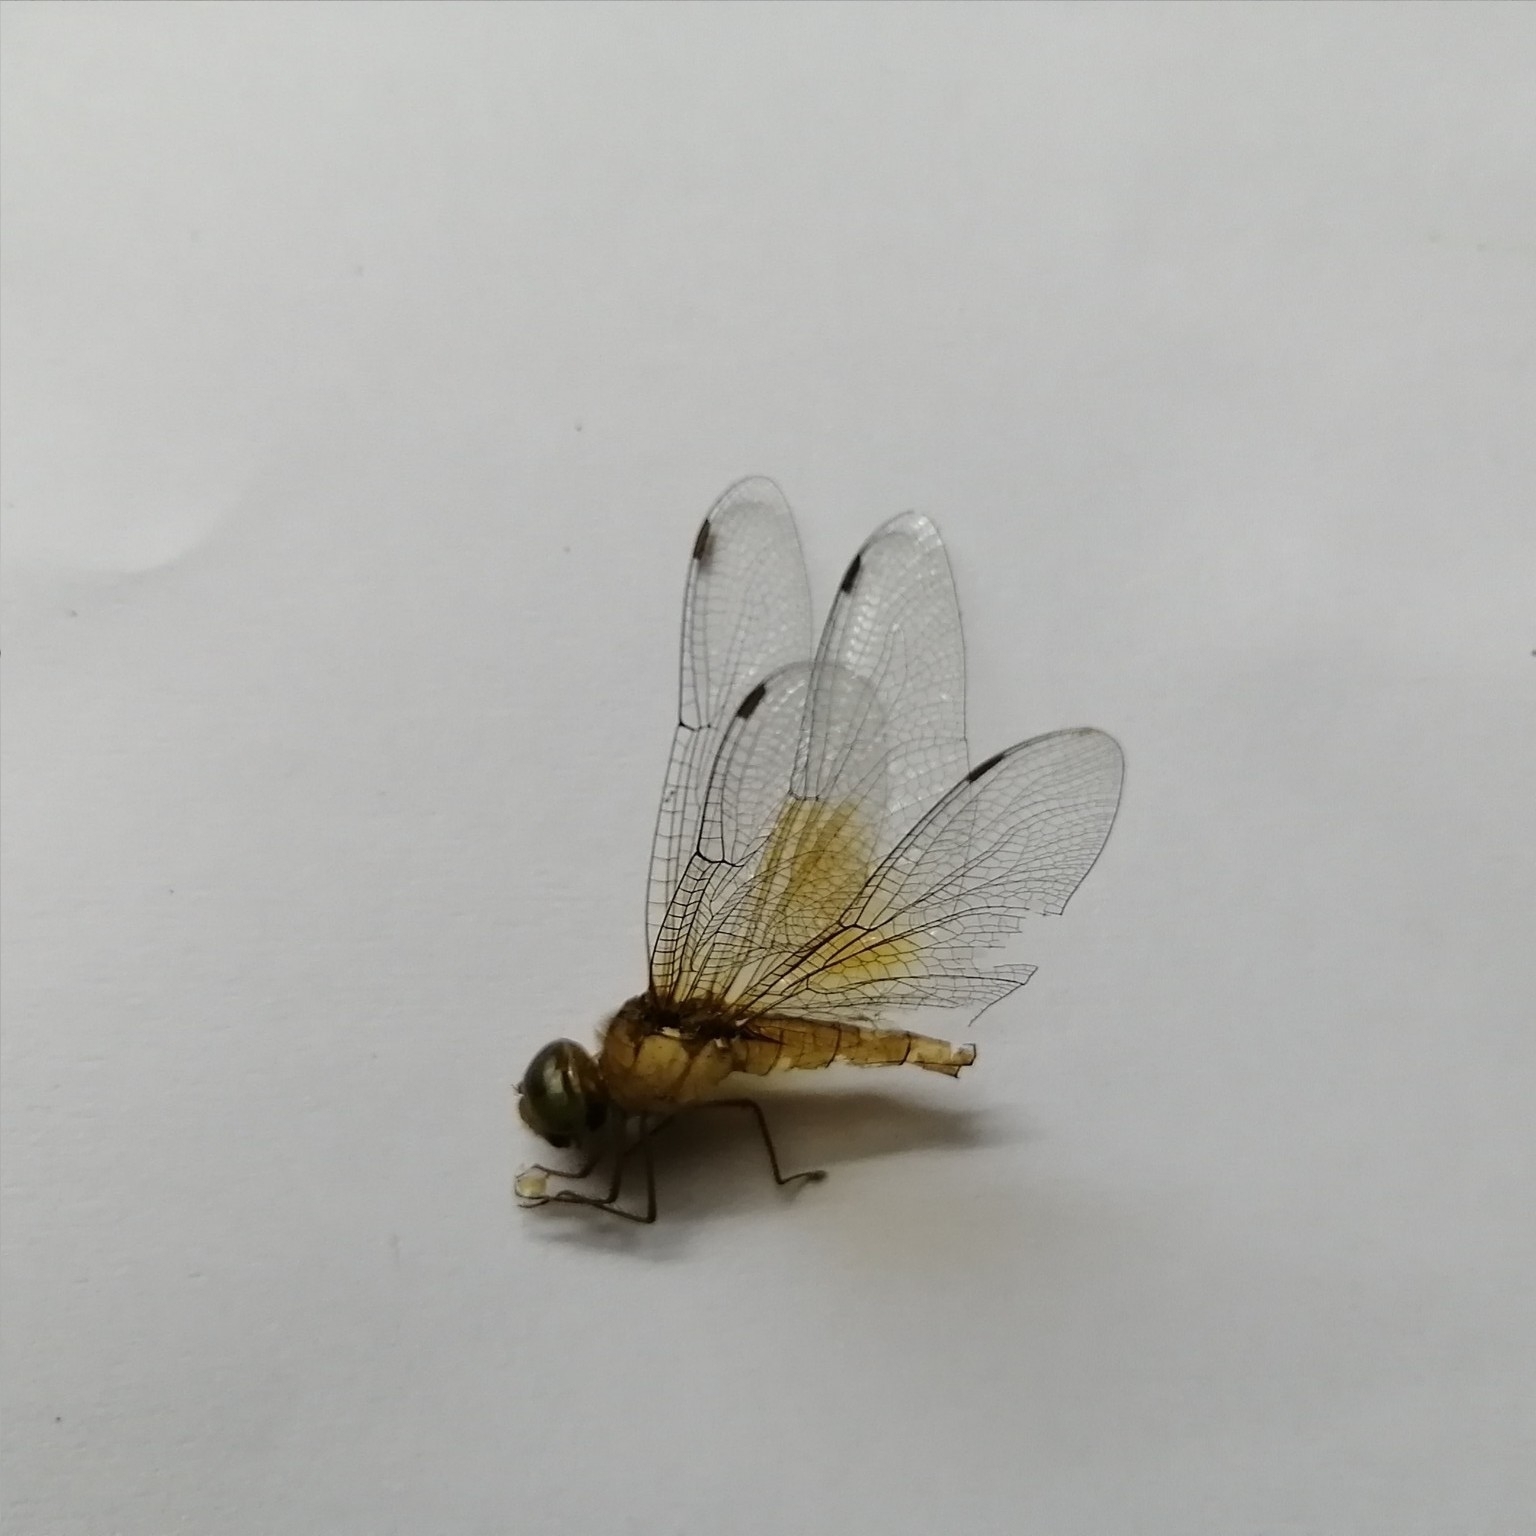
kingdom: Animalia
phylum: Arthropoda
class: Insecta
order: Odonata
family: Libellulidae
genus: Tholymis
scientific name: Tholymis tillarga
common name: Coral-tailed cloud wing
